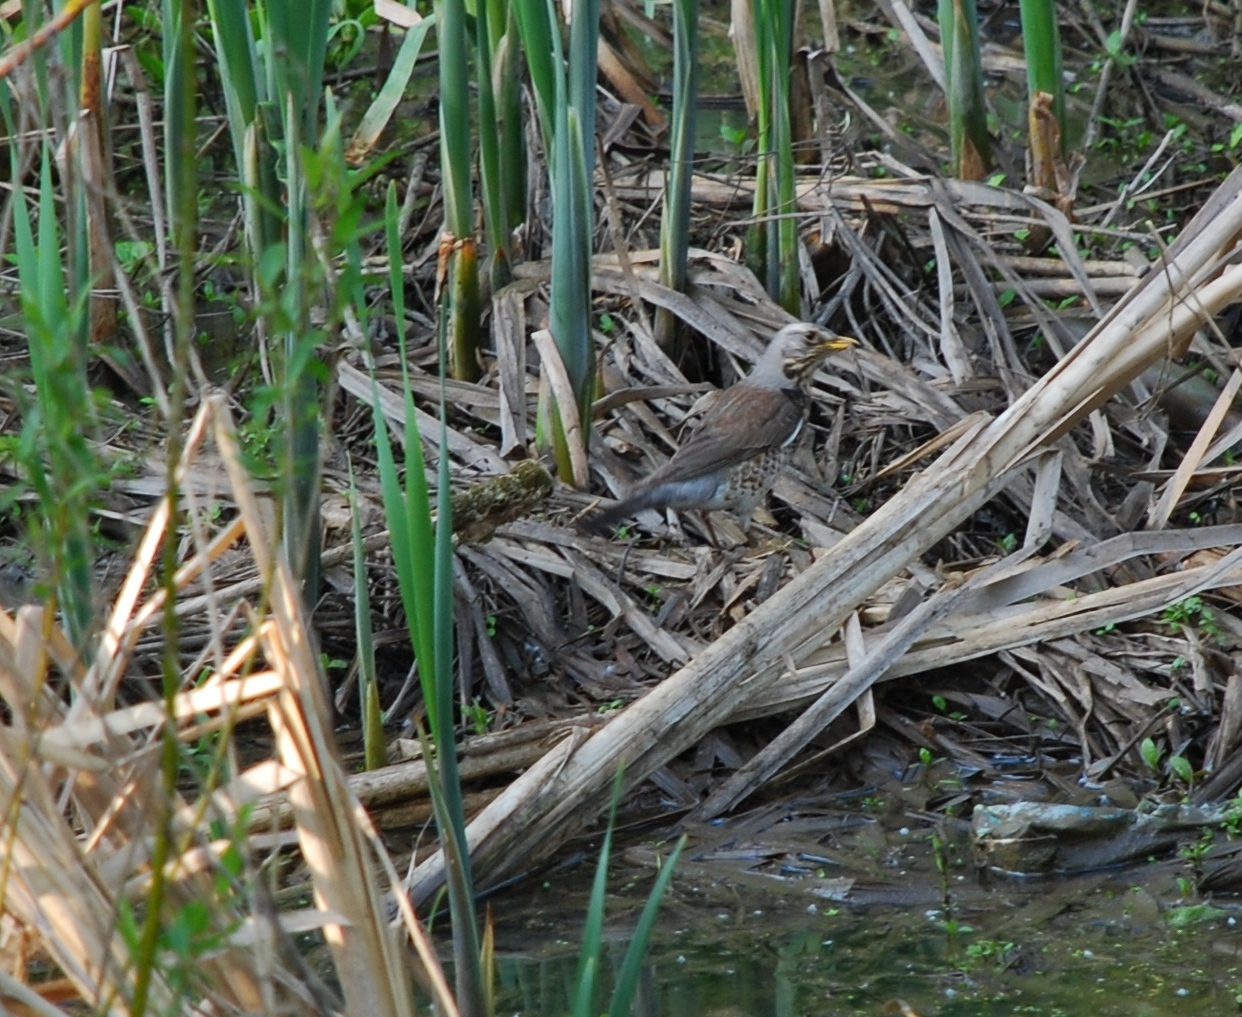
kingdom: Animalia
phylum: Chordata
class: Aves
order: Passeriformes
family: Turdidae
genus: Turdus
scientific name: Turdus pilaris
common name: Fieldfare
